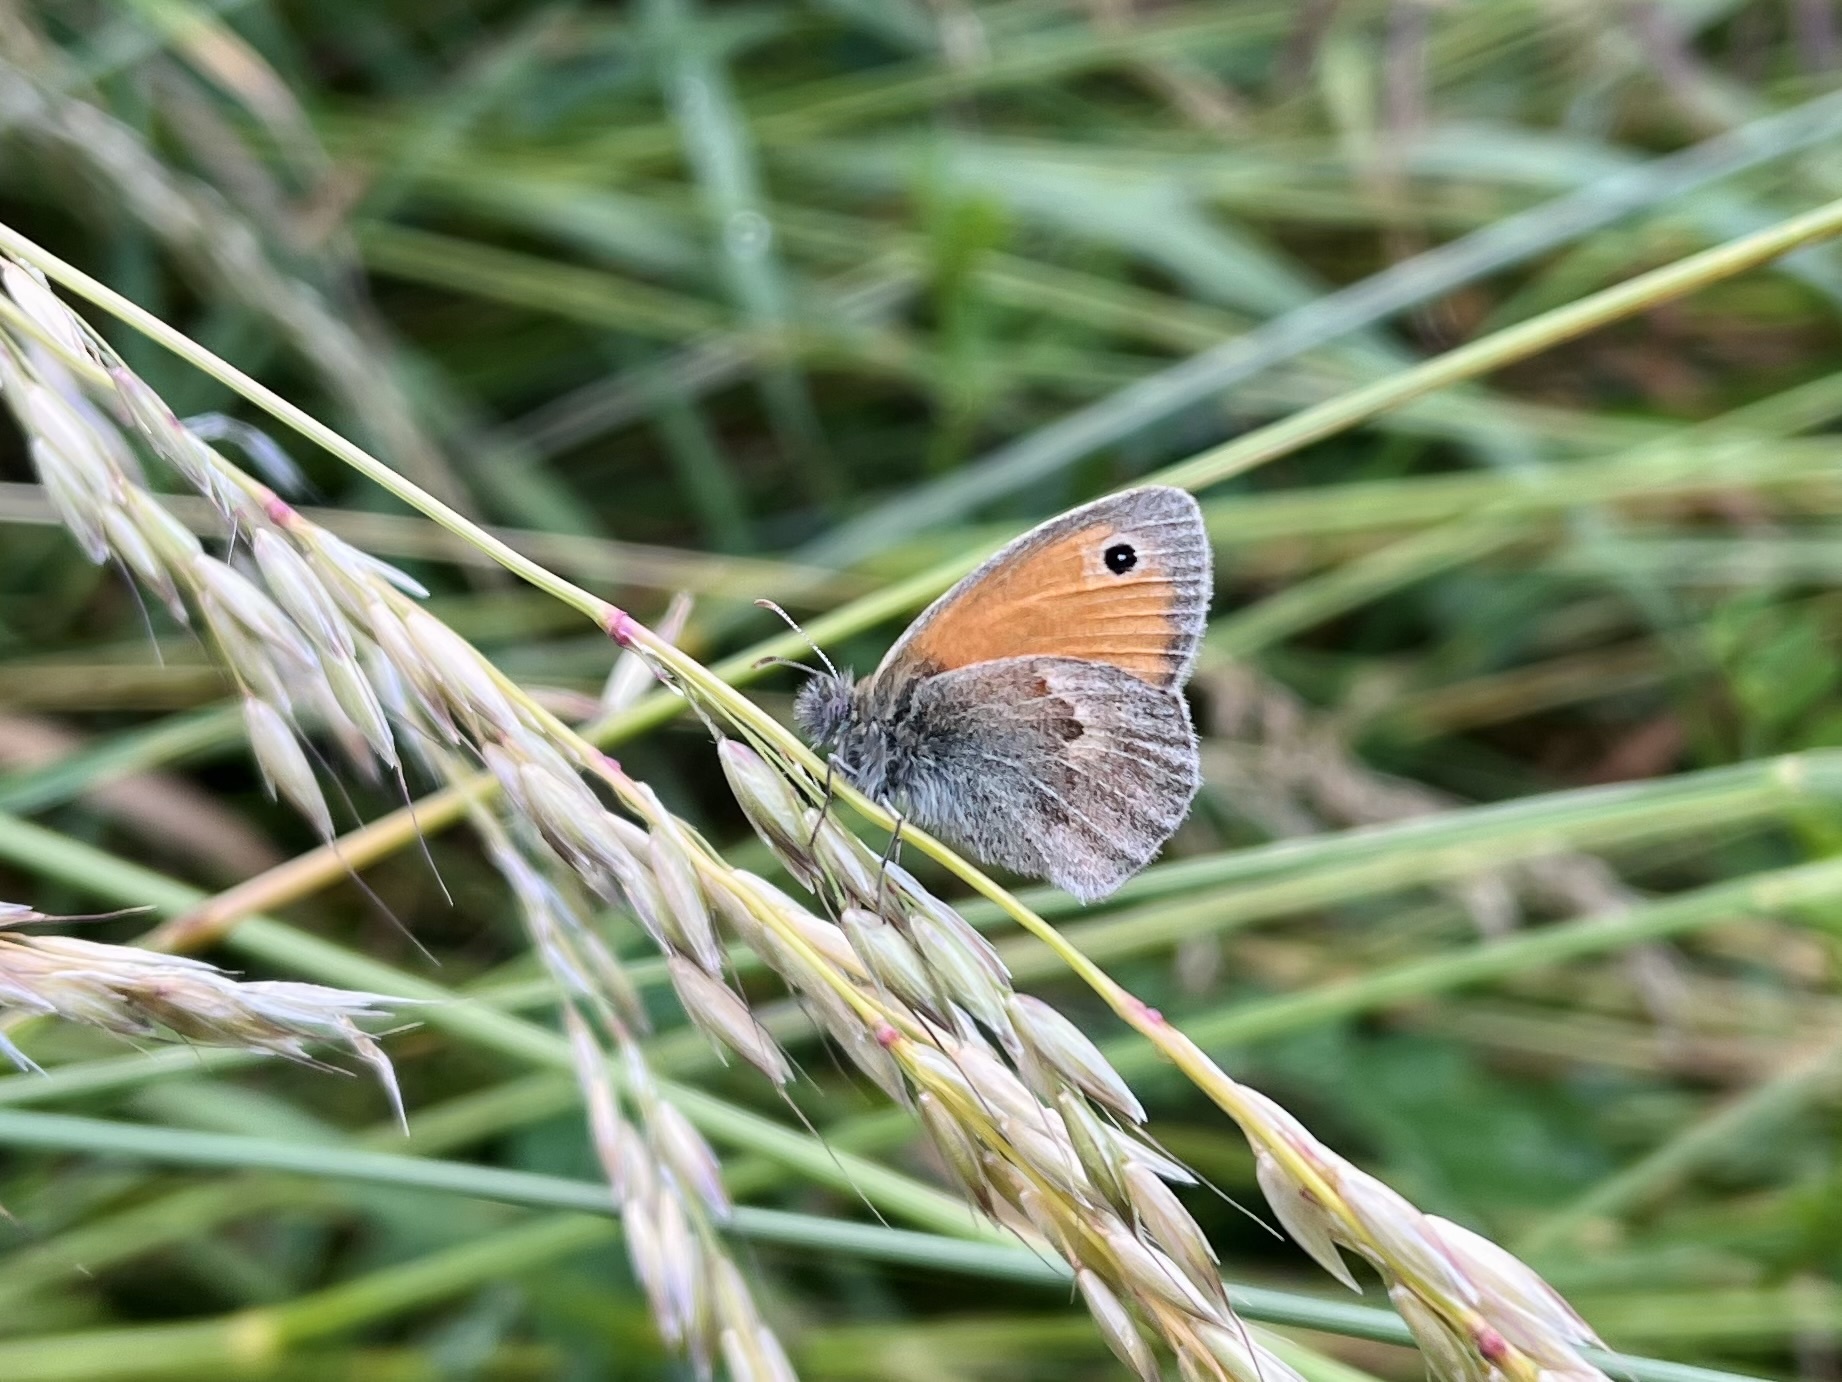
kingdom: Animalia
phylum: Arthropoda
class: Insecta
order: Lepidoptera
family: Nymphalidae
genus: Coenonympha
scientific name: Coenonympha pamphilus
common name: Small heath
